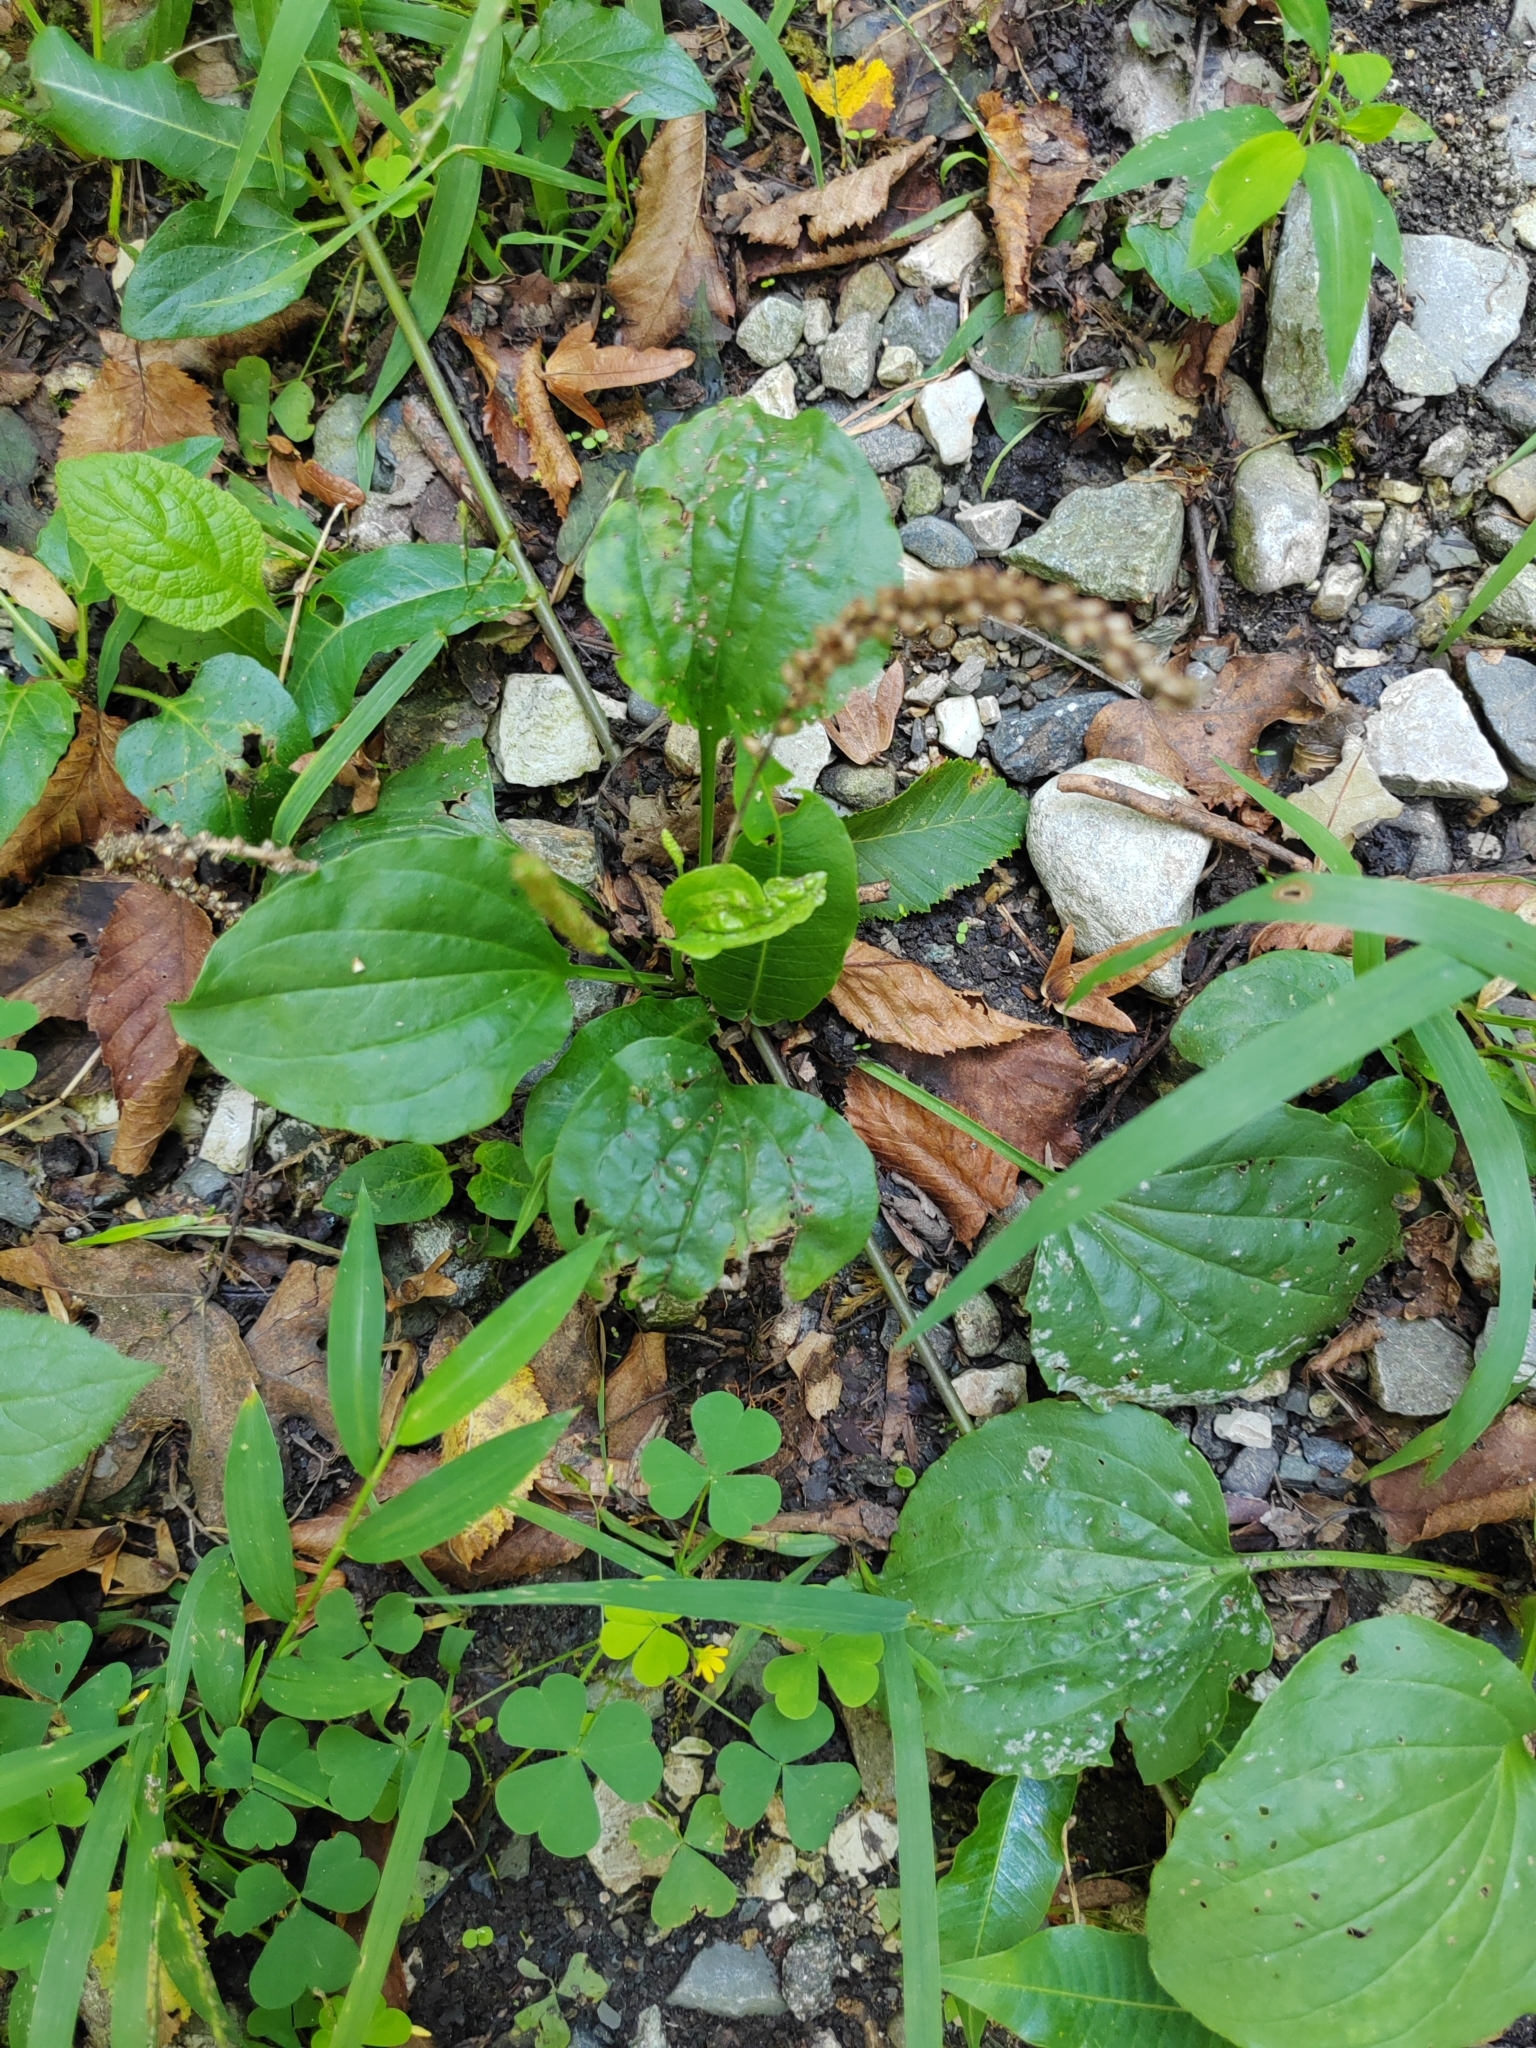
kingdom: Plantae
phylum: Tracheophyta
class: Magnoliopsida
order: Lamiales
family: Plantaginaceae
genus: Plantago
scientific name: Plantago major
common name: Common plantain
